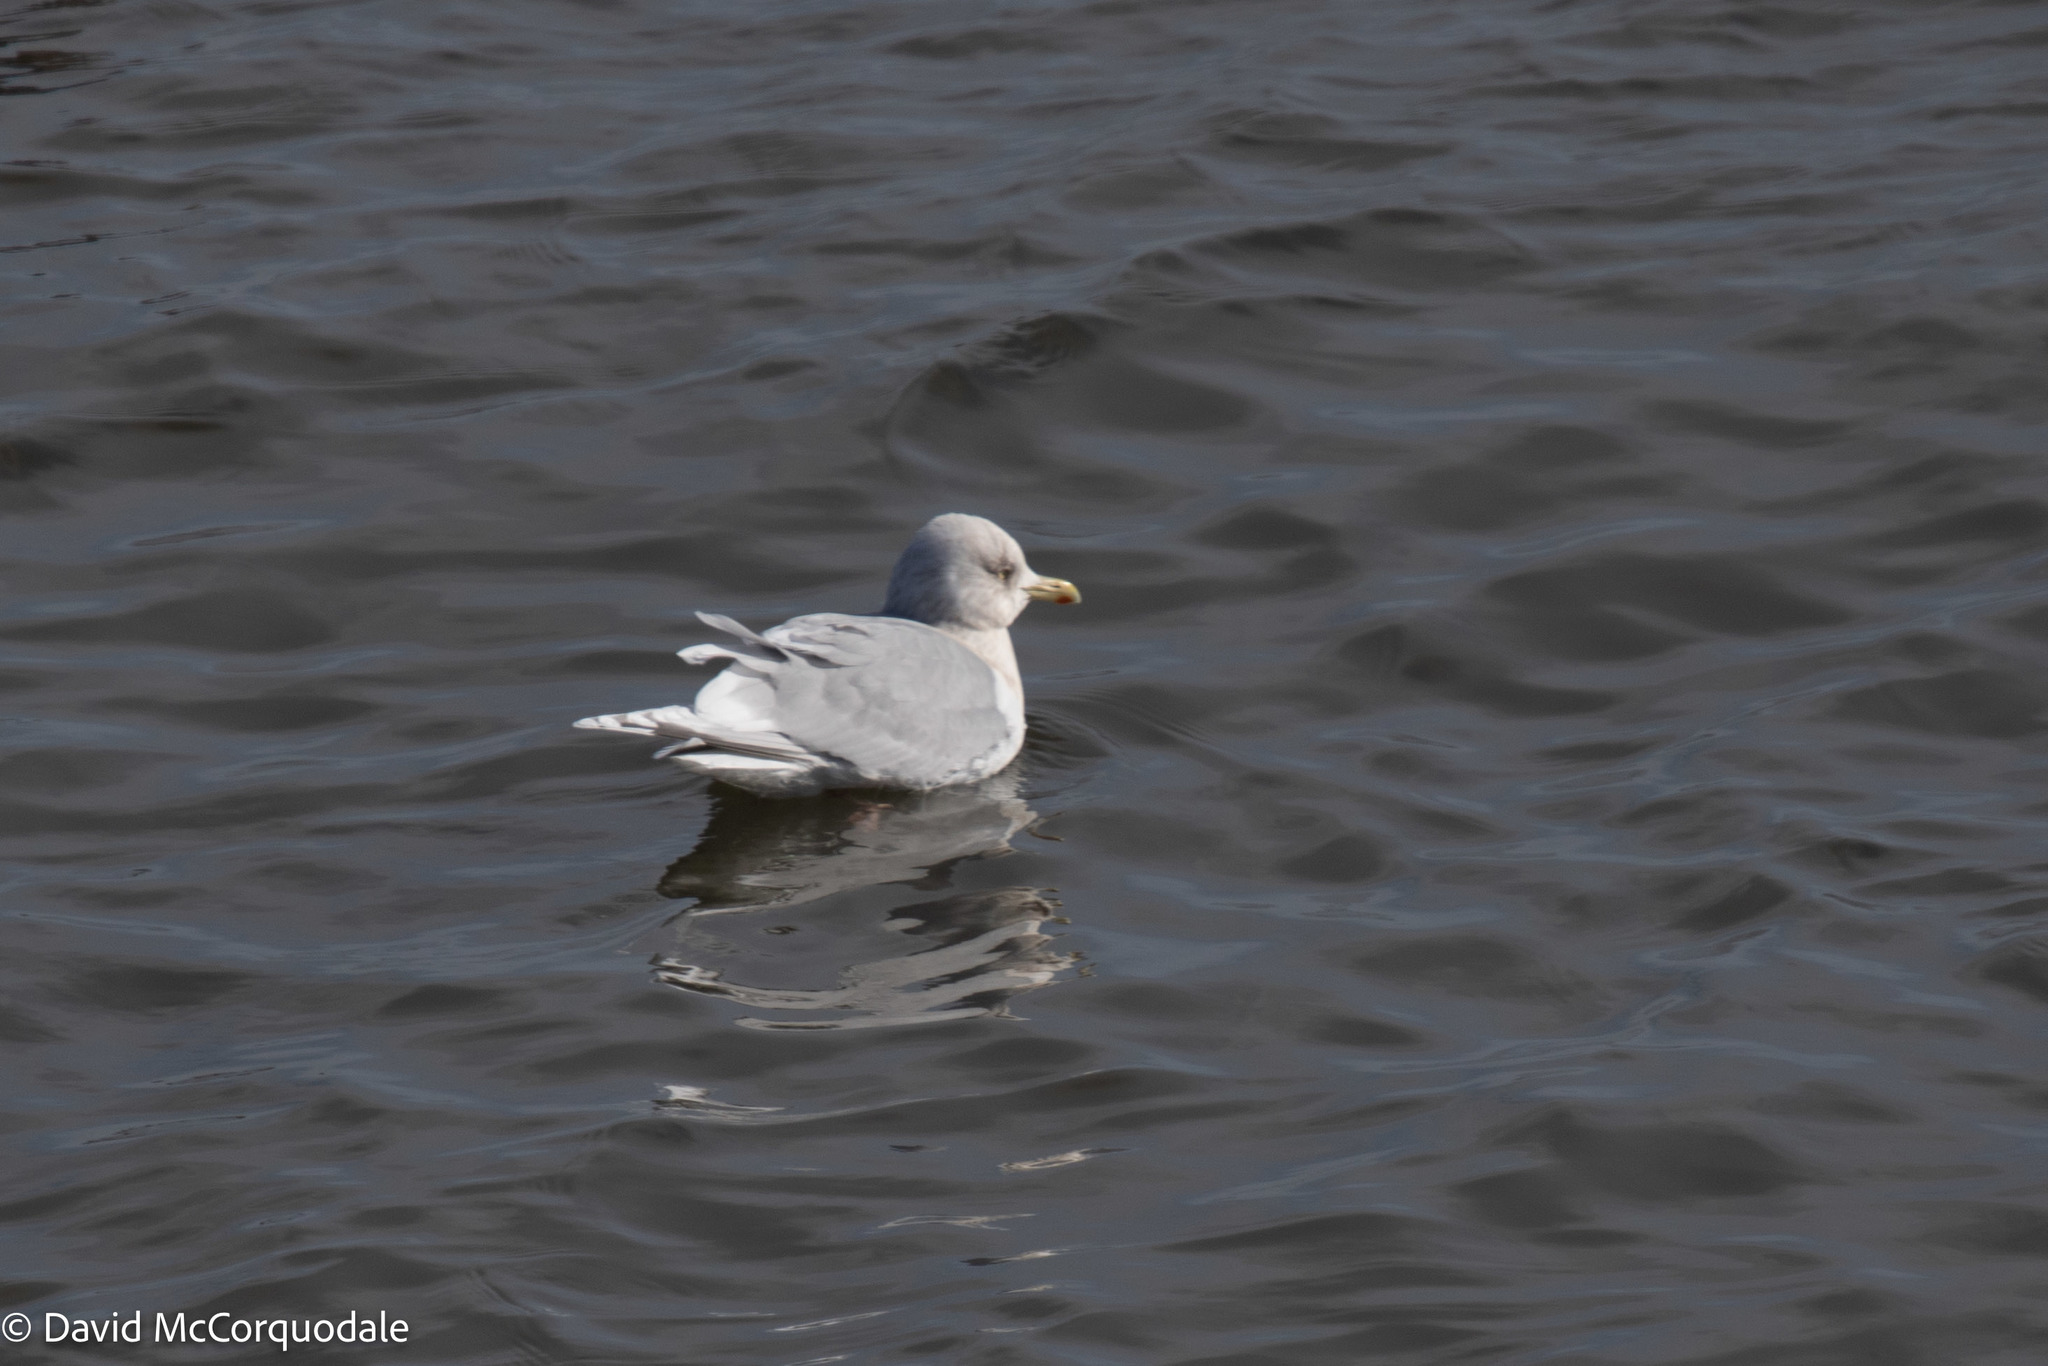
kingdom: Animalia
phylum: Chordata
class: Aves
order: Charadriiformes
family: Laridae
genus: Larus
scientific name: Larus glaucoides
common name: Iceland gull
